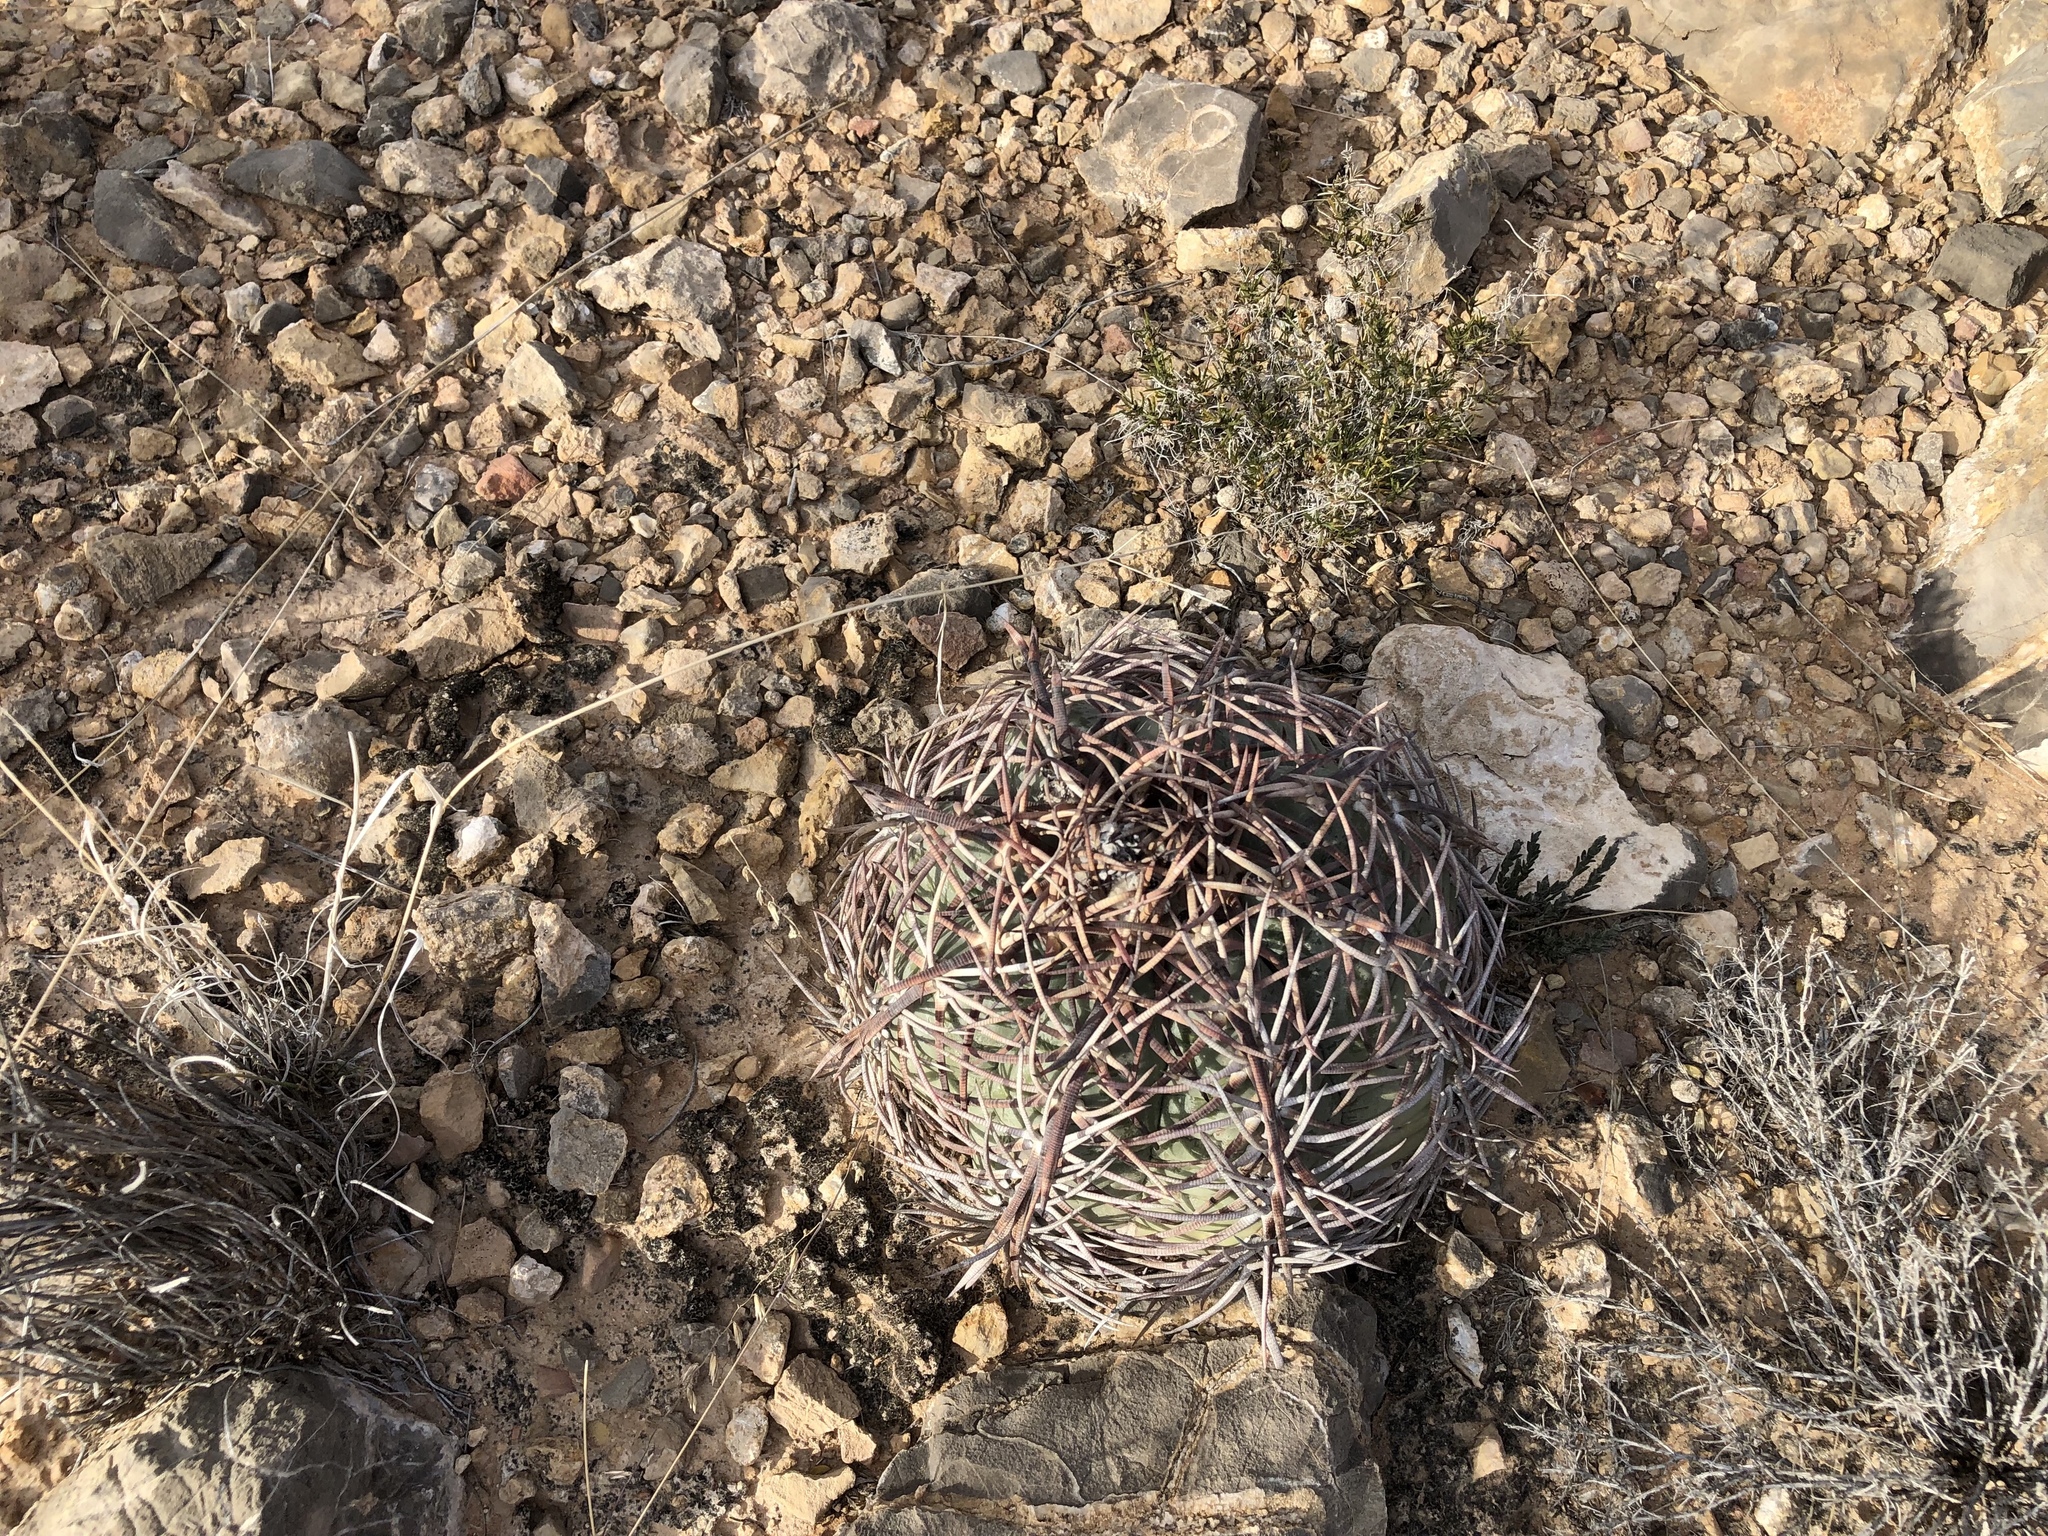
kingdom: Plantae
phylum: Tracheophyta
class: Magnoliopsida
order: Caryophyllales
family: Cactaceae
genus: Echinocactus
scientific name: Echinocactus horizonthalonius
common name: Devilshead
